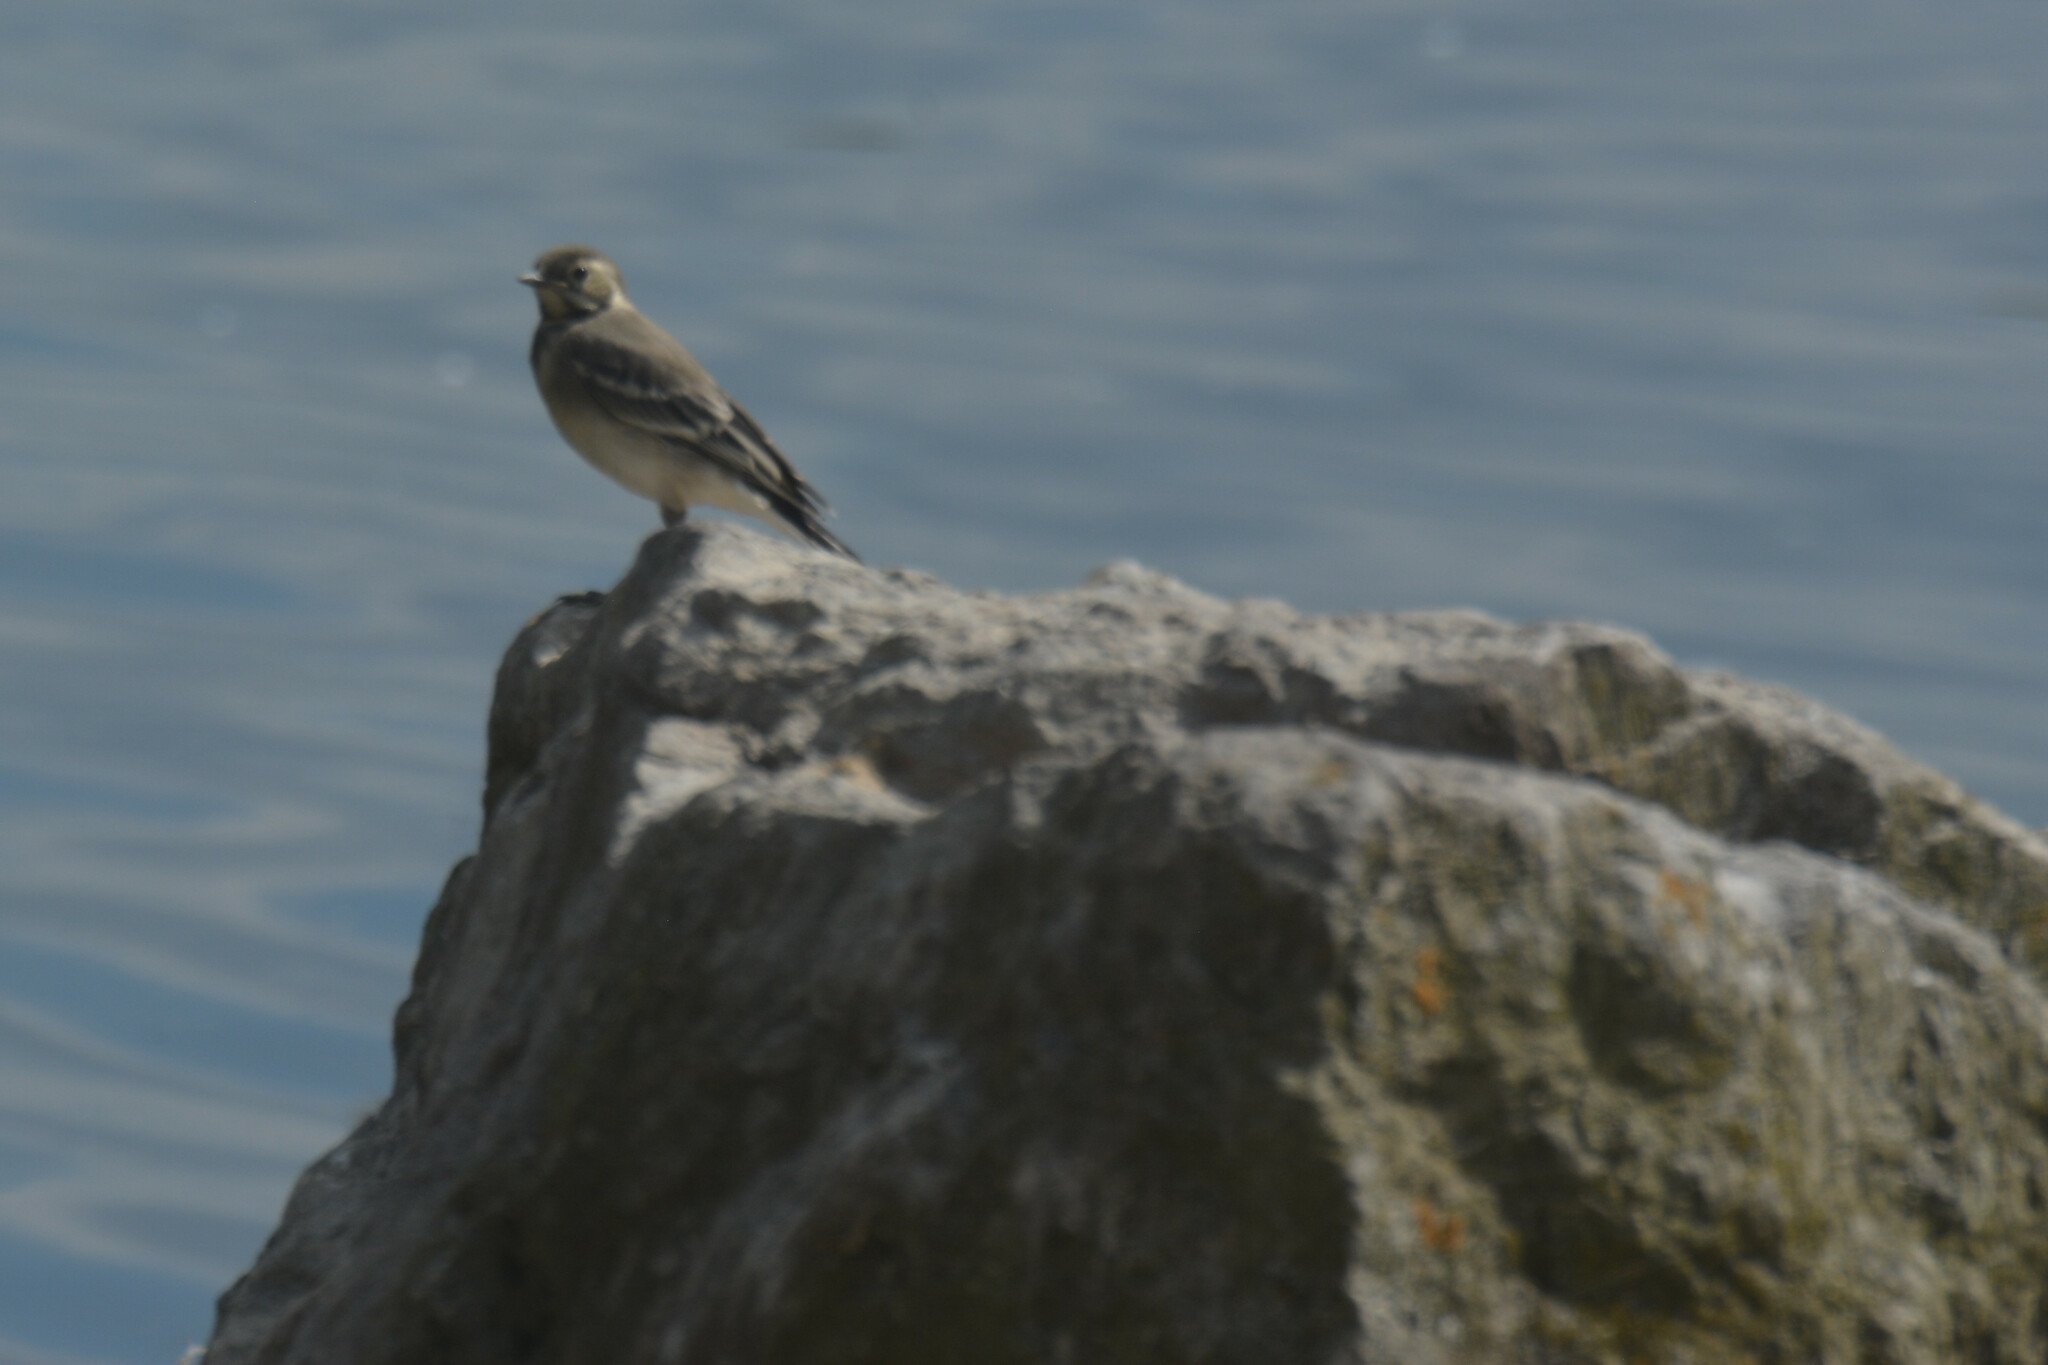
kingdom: Animalia
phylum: Chordata
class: Aves
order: Passeriformes
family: Motacillidae
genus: Motacilla
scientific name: Motacilla alba
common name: White wagtail
